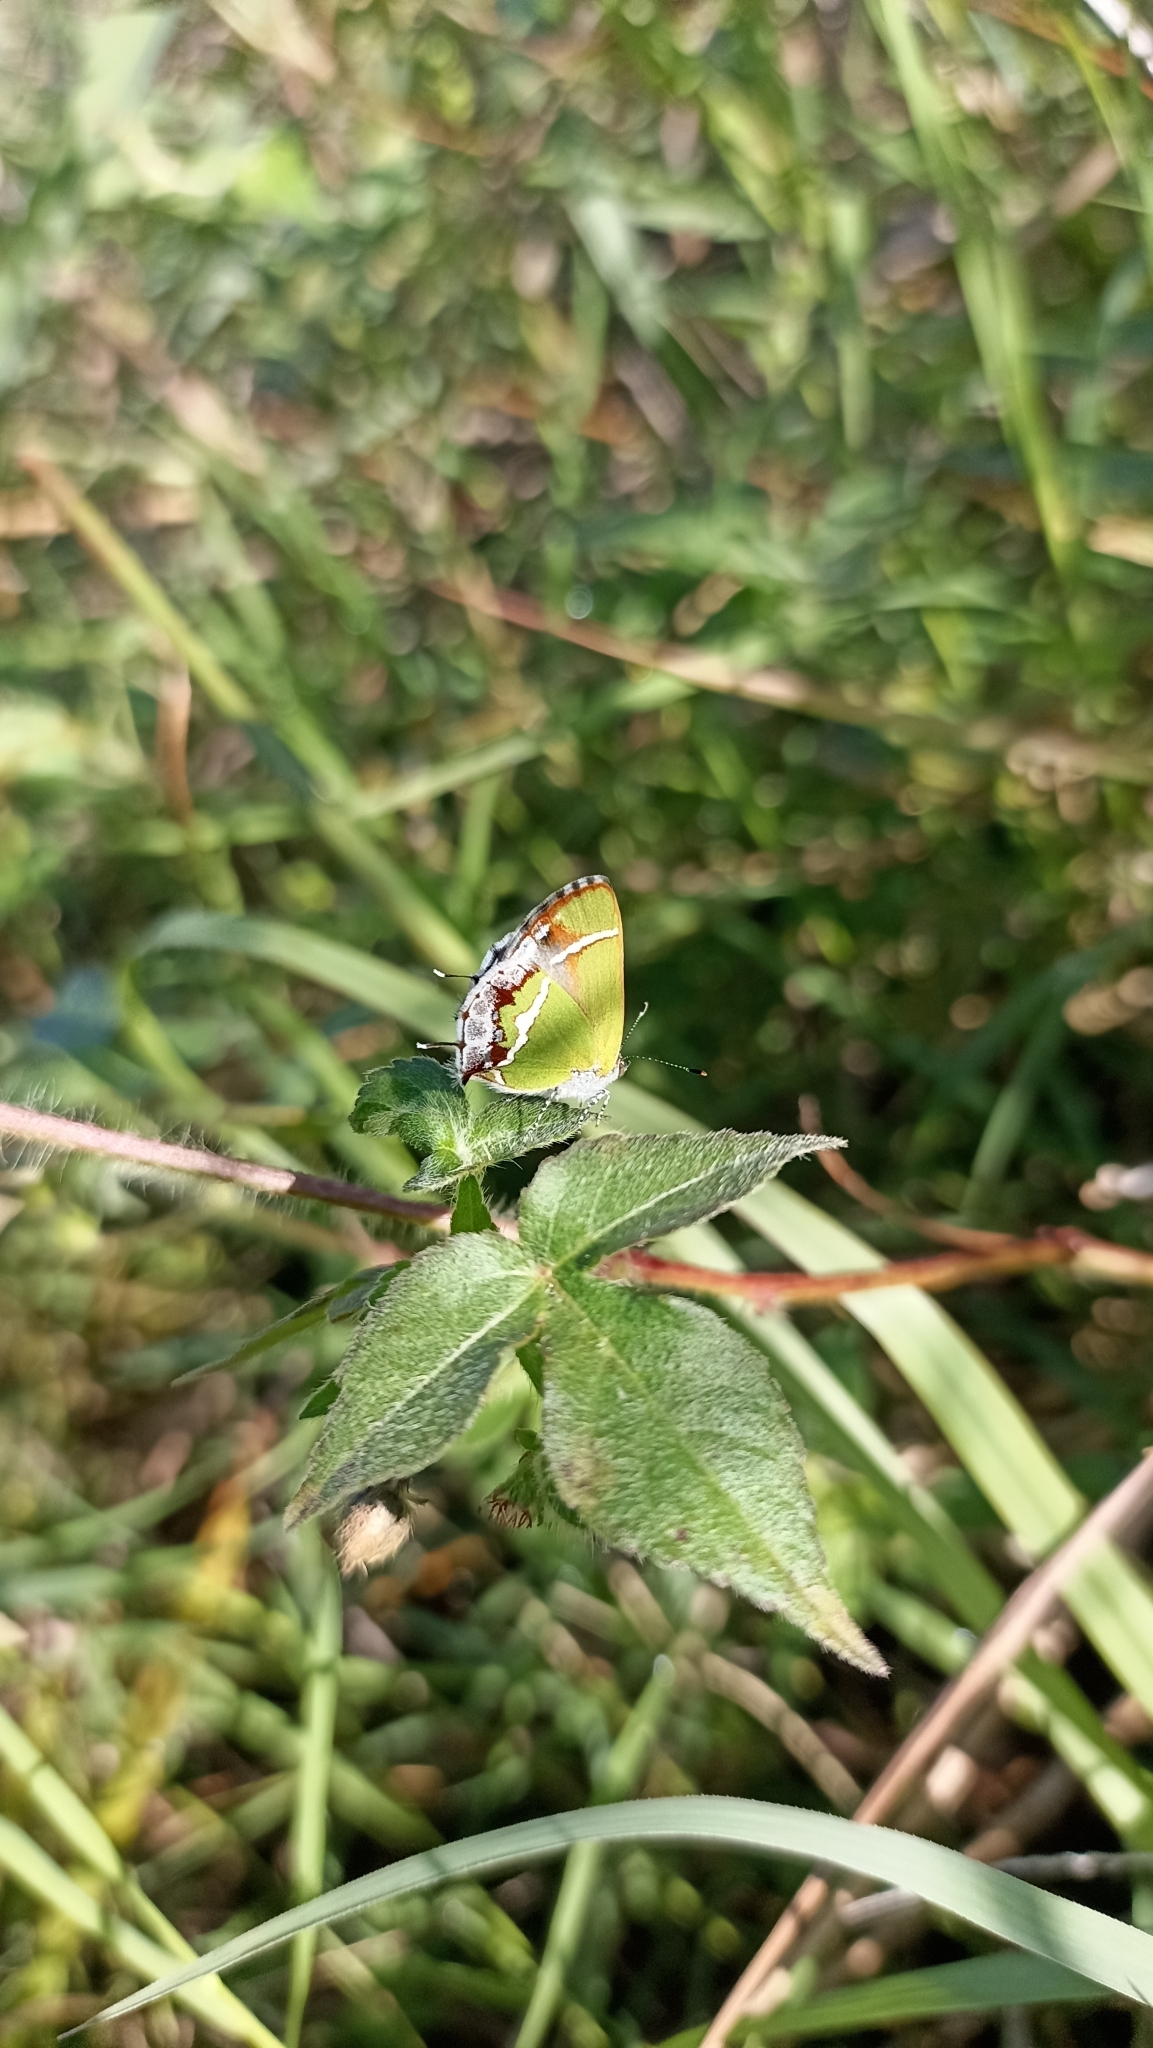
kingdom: Animalia
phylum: Arthropoda
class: Insecta
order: Lepidoptera
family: Lycaenidae
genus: Chlorostrymon
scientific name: Chlorostrymon simaethis
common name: Silver-banded hairstreak
